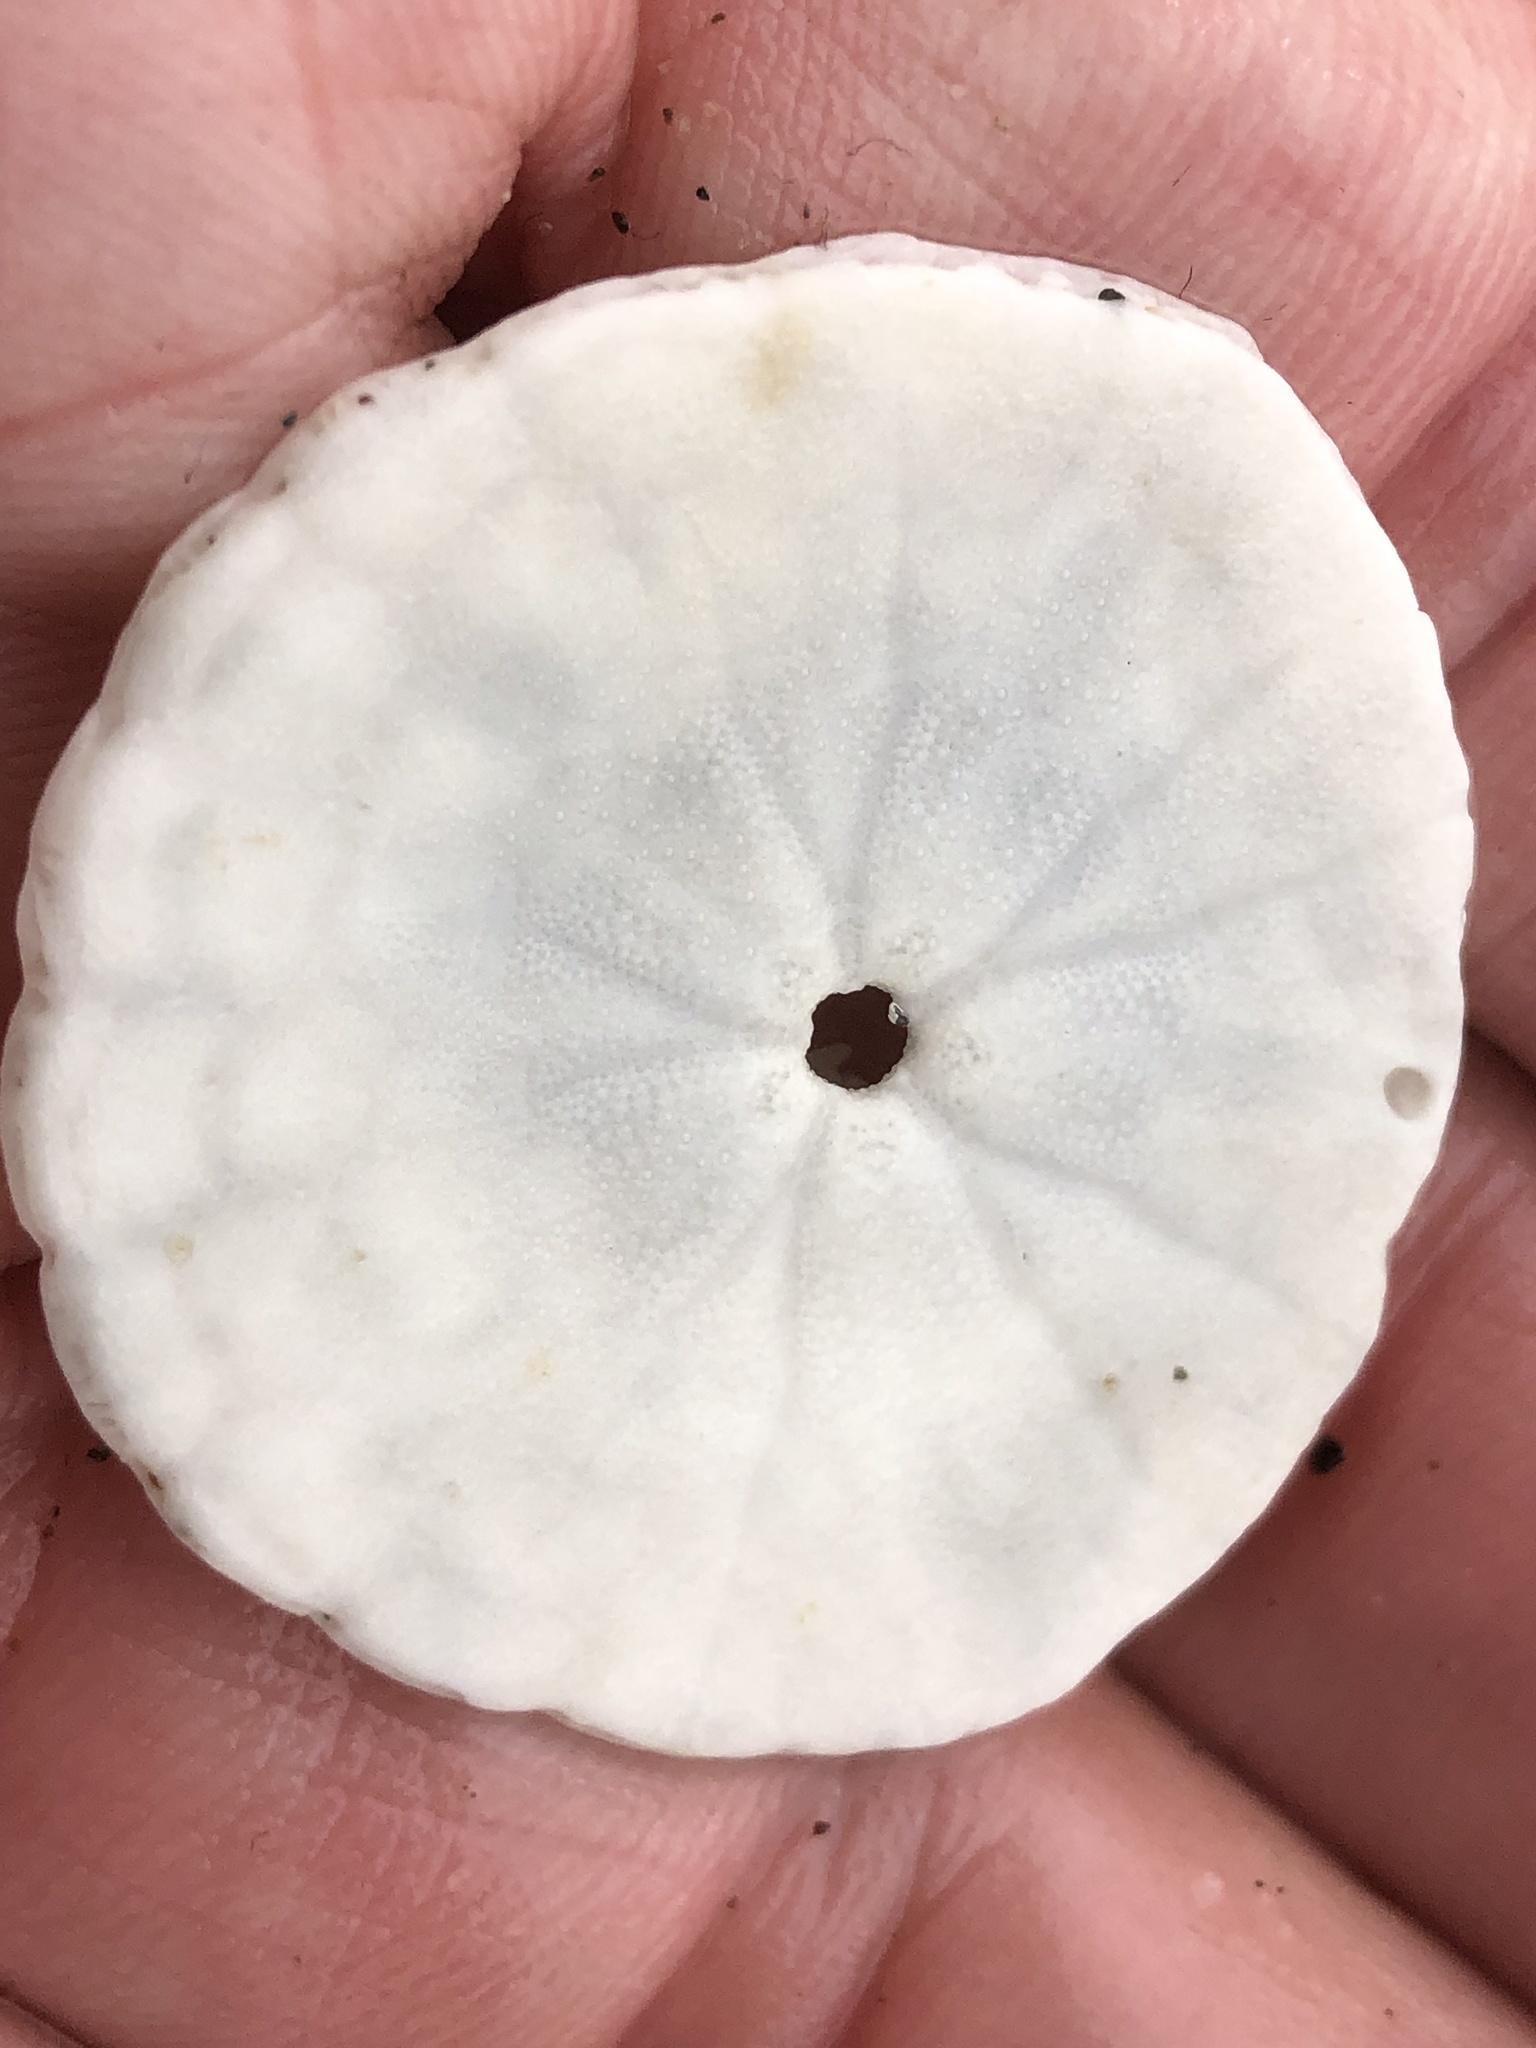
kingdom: Animalia
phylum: Echinodermata
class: Echinoidea
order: Echinolampadacea
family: Dendrasteridae
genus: Dendraster
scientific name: Dendraster excentricus
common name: Eccentric sand dollar sea urchin
